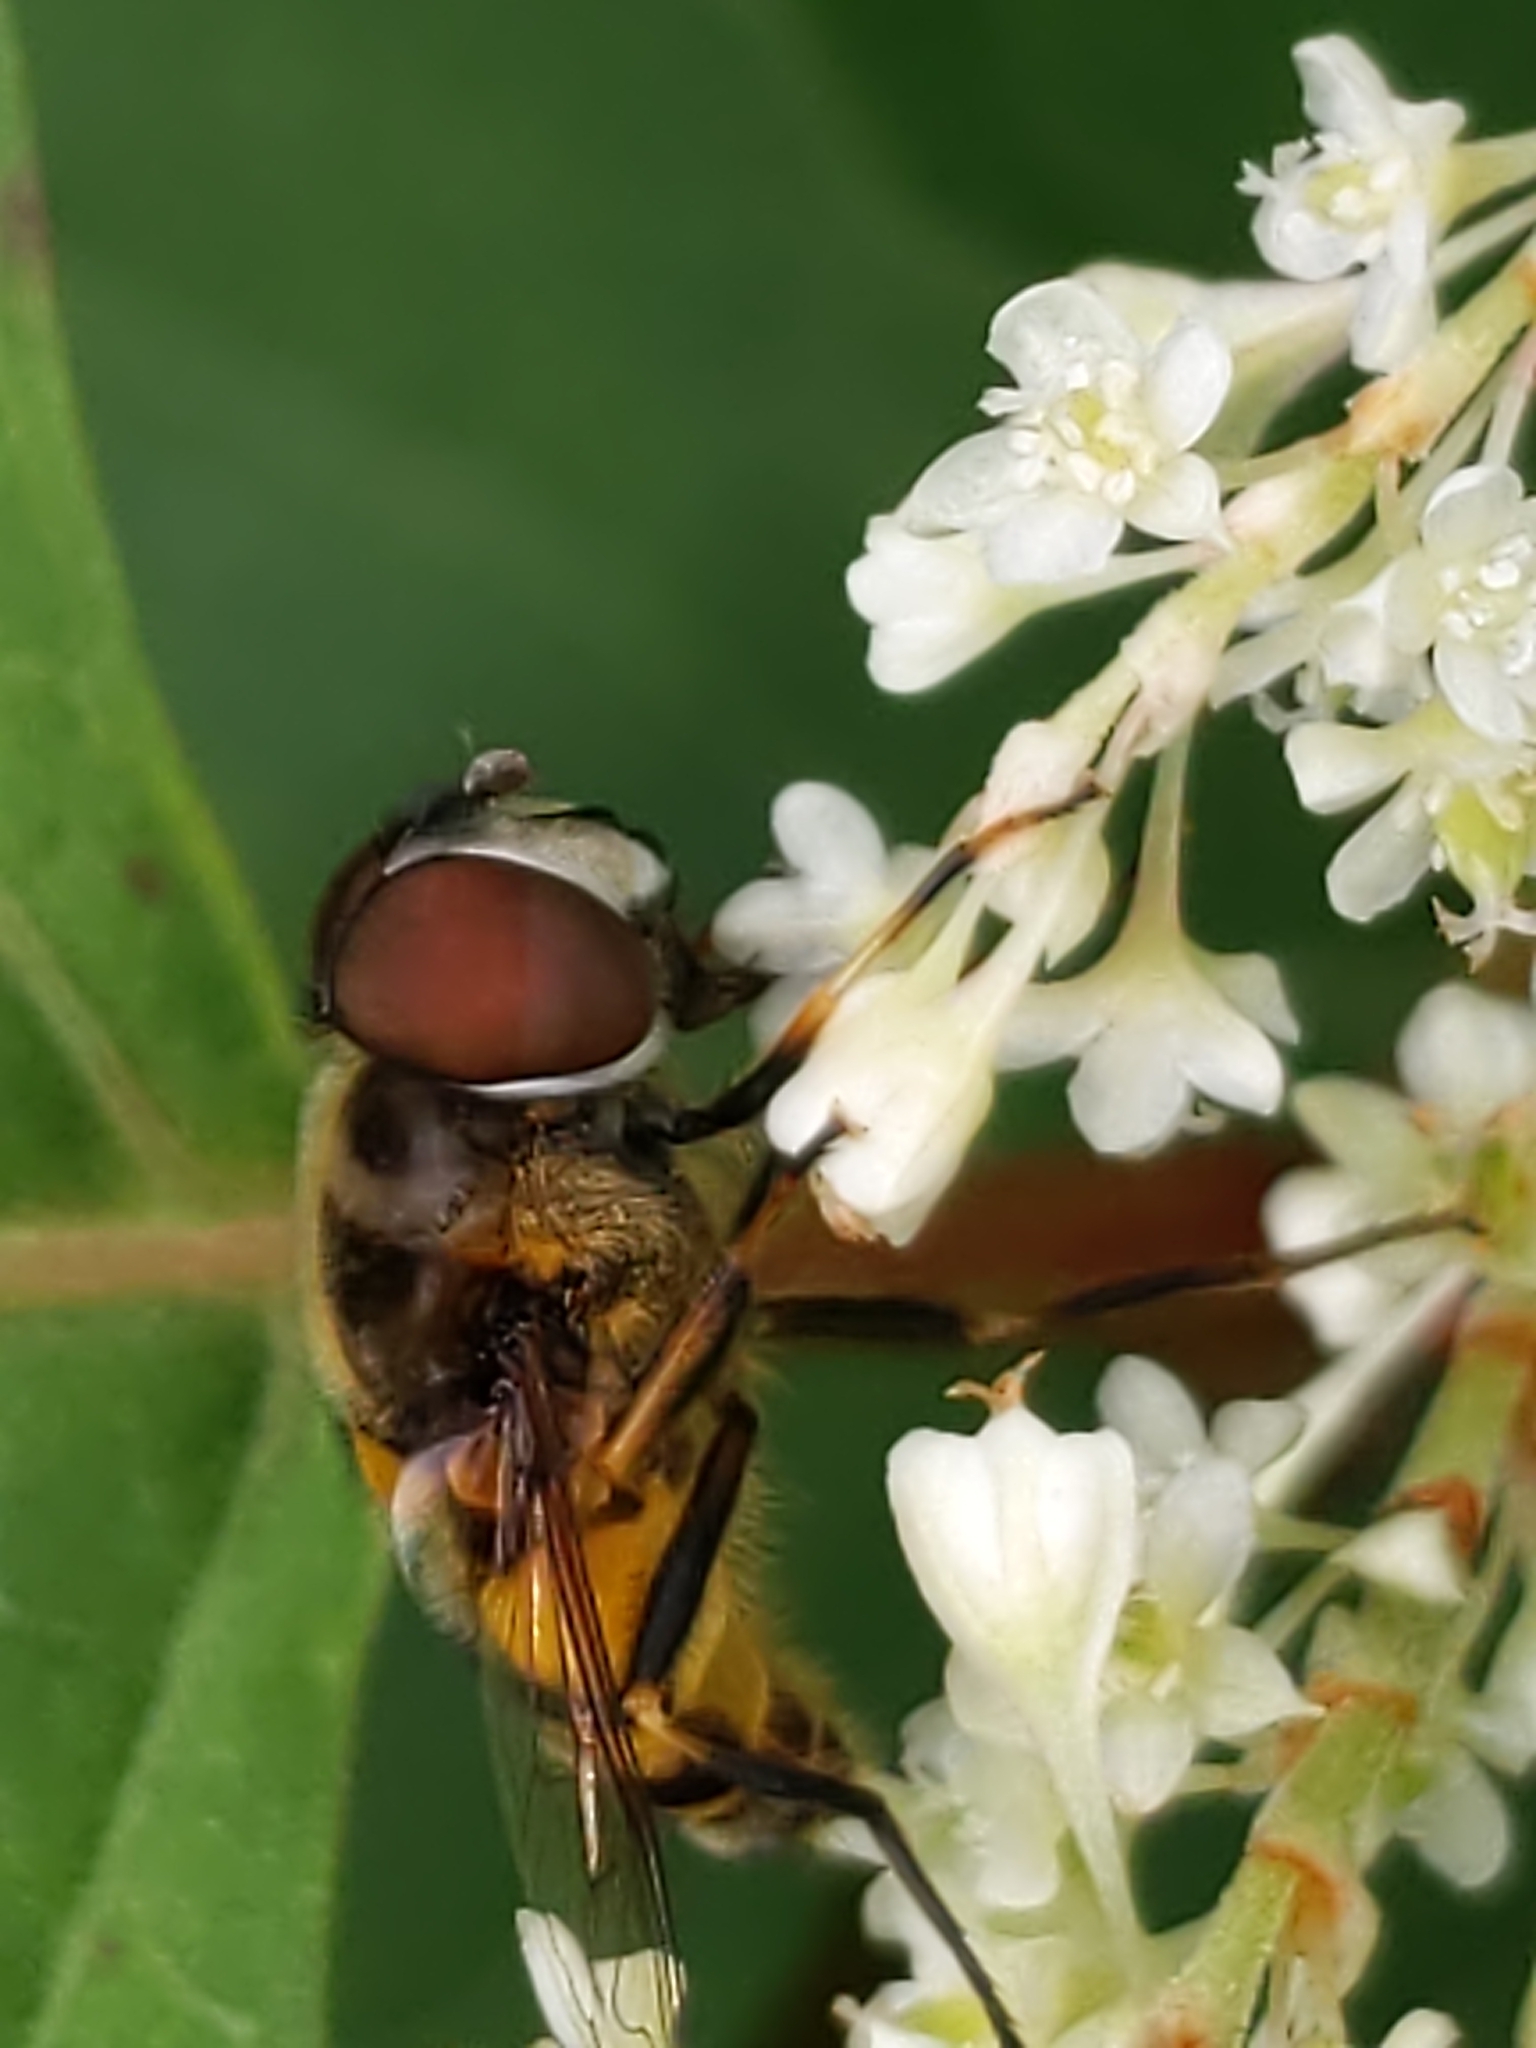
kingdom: Animalia
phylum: Arthropoda
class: Insecta
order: Diptera
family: Syrphidae
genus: Eristalis
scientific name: Eristalis transversa
